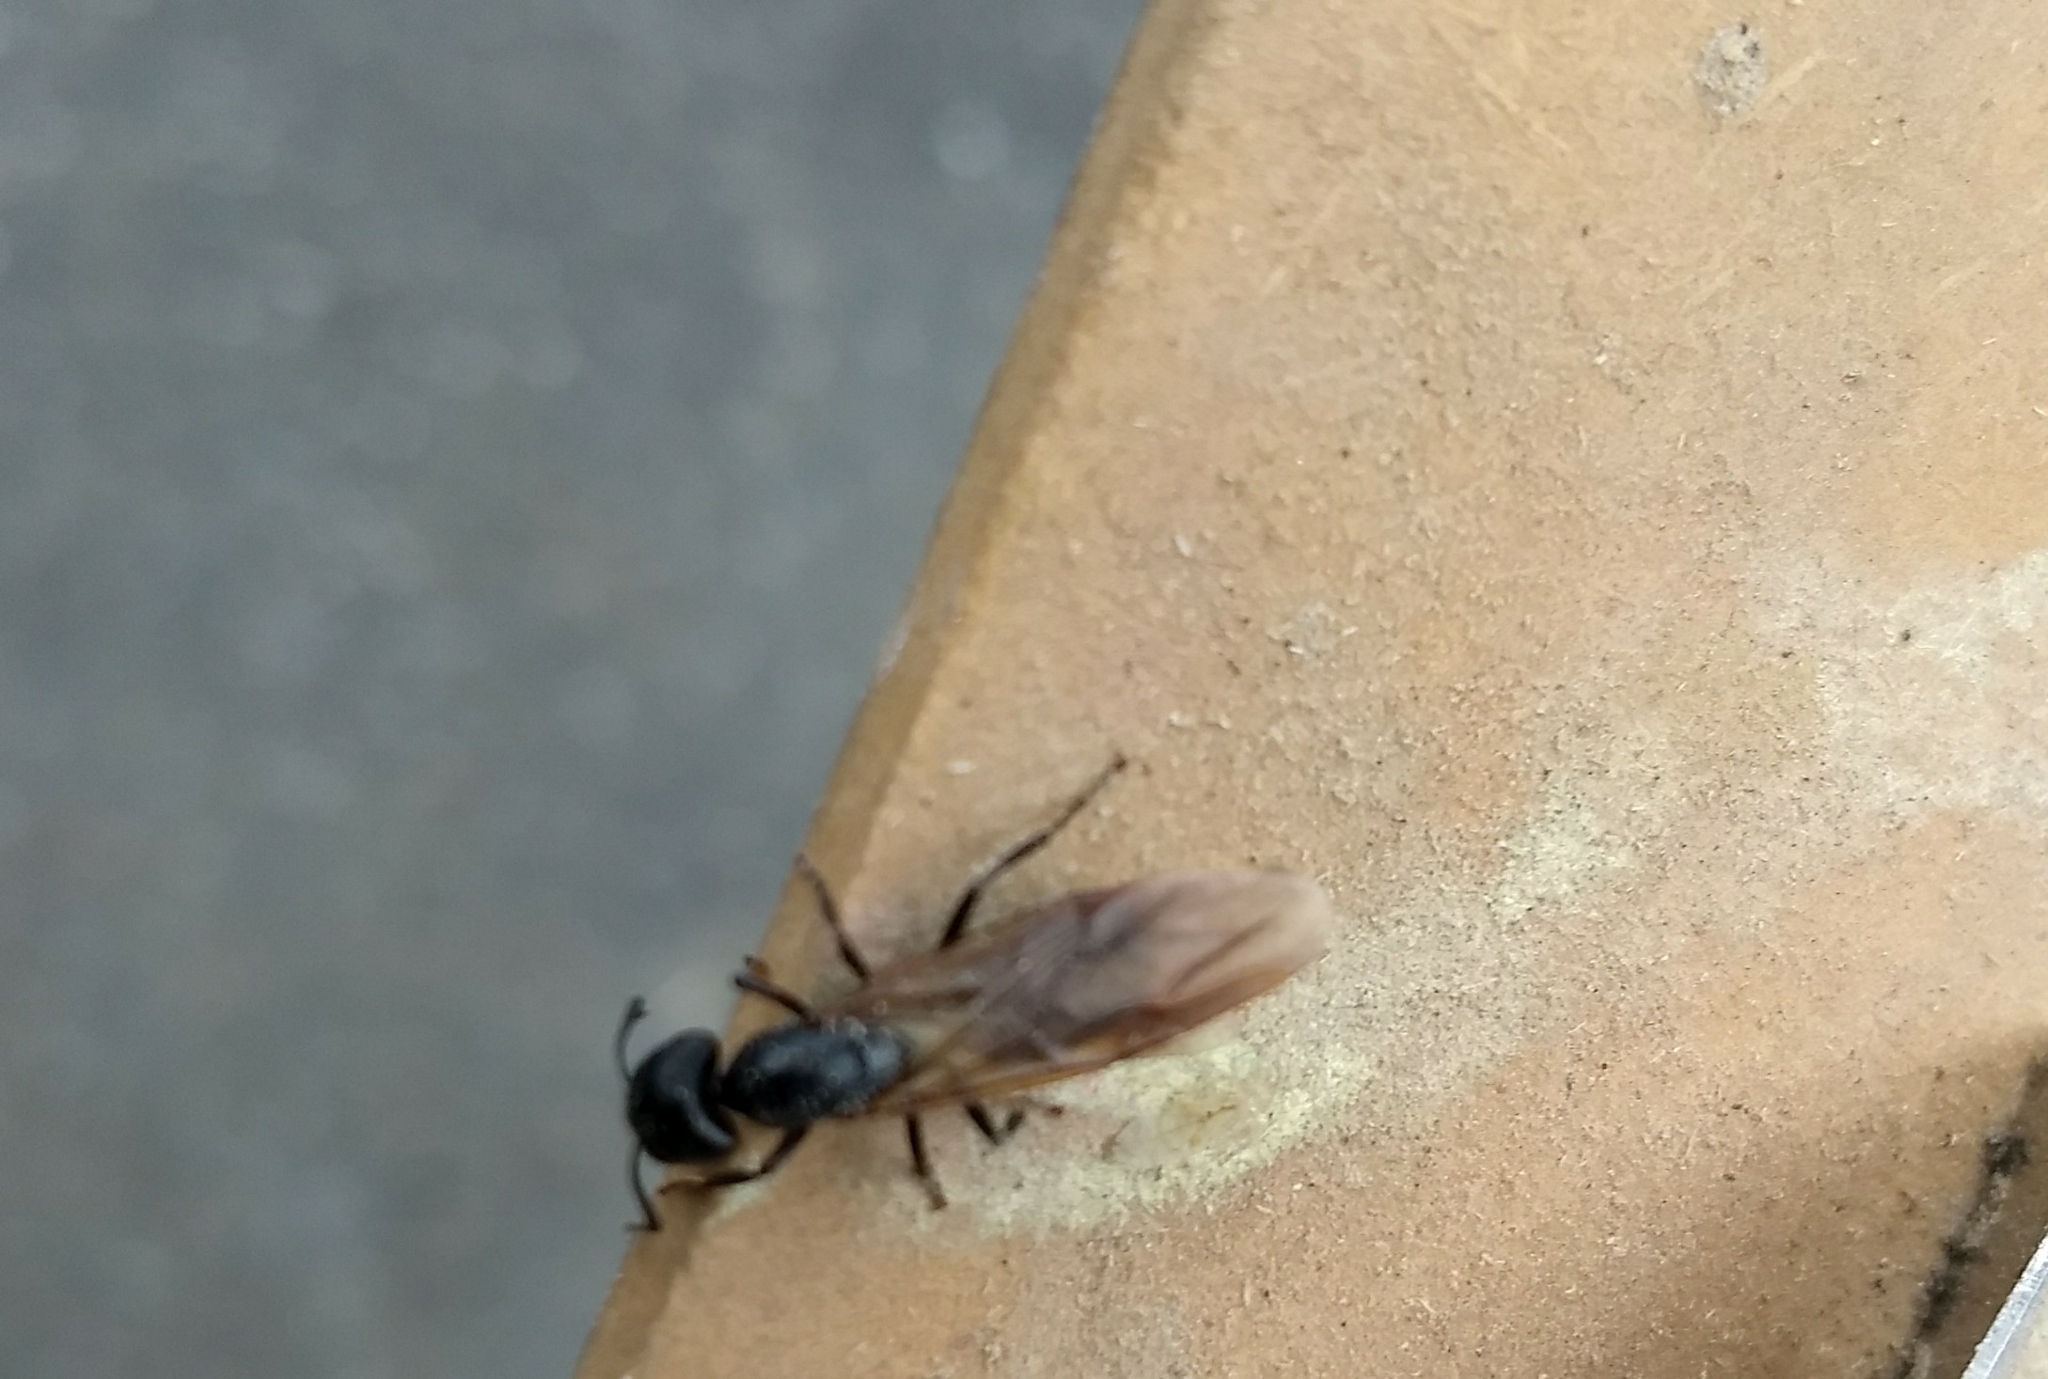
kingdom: Animalia
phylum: Arthropoda
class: Insecta
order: Hymenoptera
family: Formicidae
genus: Camponotus
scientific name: Camponotus pennsylvanicus
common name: Black carpenter ant
